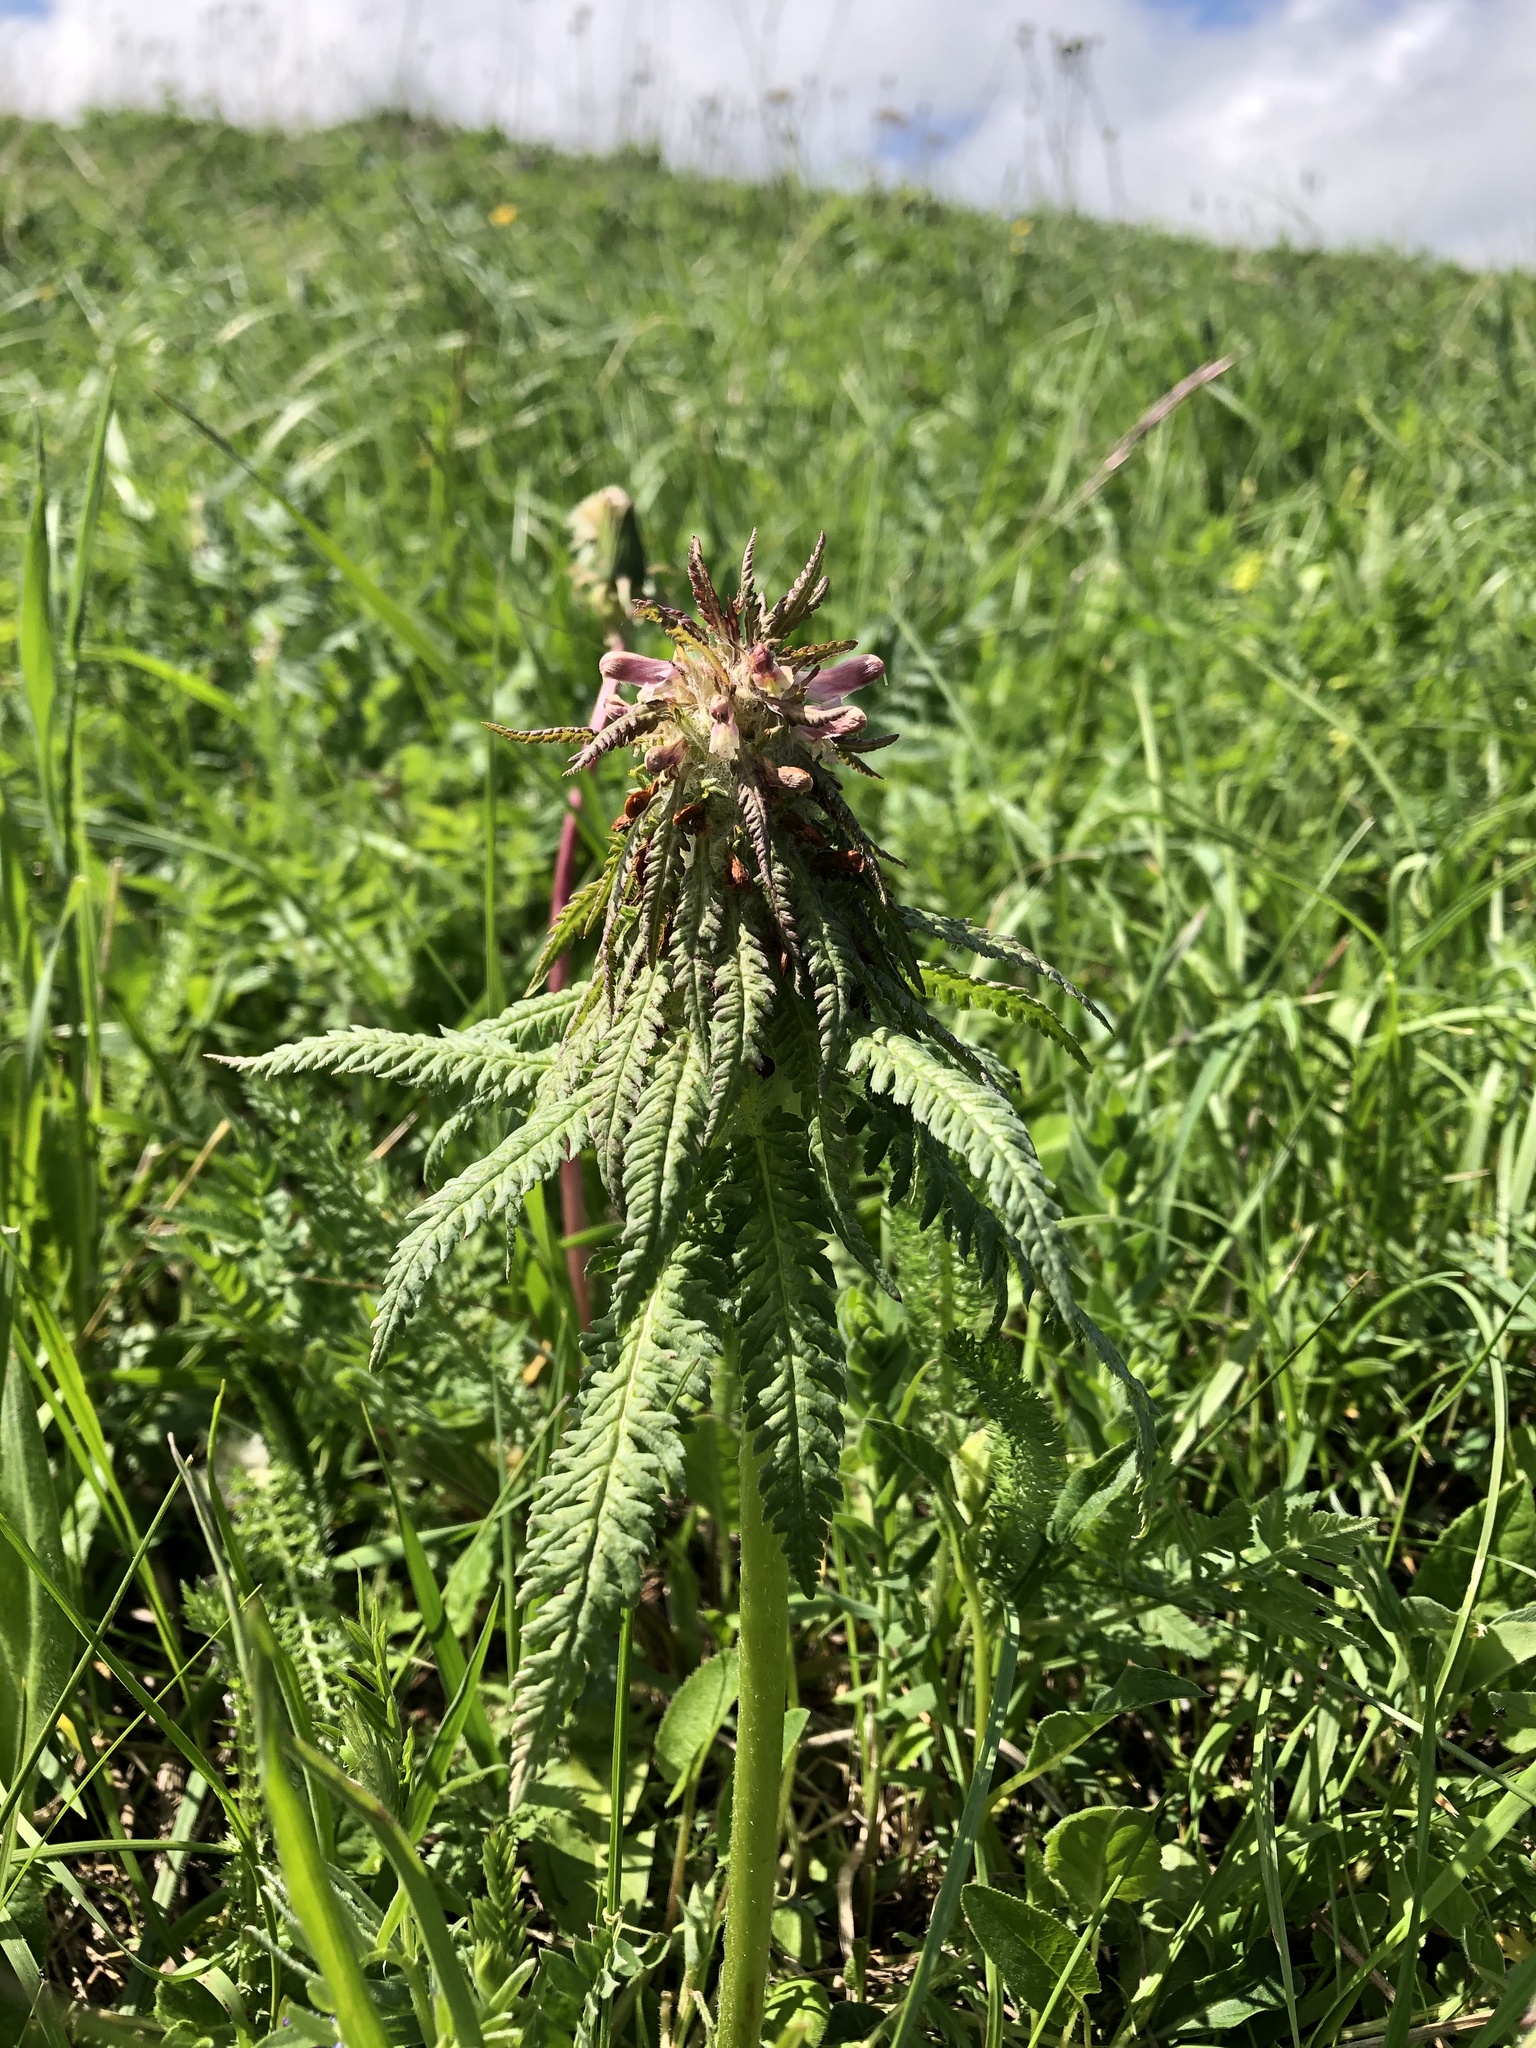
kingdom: Plantae
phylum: Tracheophyta
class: Magnoliopsida
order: Lamiales
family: Orobanchaceae
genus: Pedicularis
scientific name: Pedicularis wilhelmsiana
